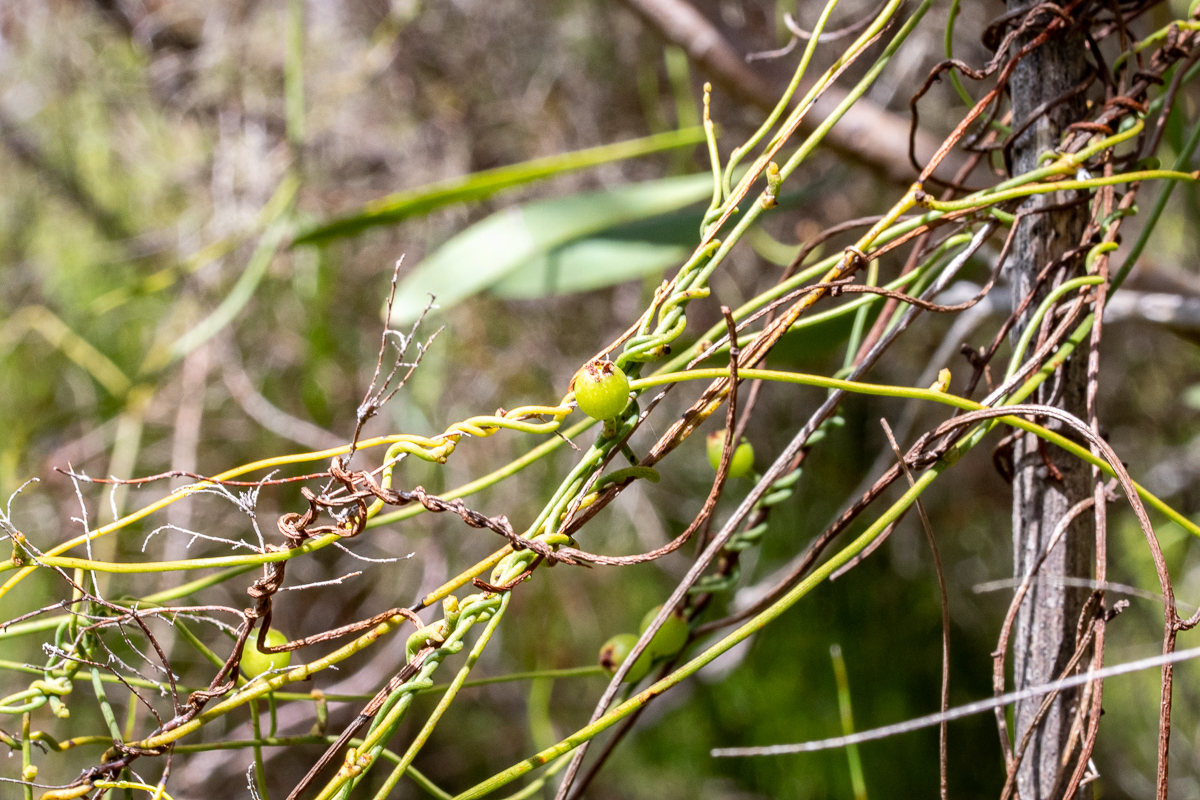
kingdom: Plantae
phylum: Tracheophyta
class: Magnoliopsida
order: Laurales
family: Lauraceae
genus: Cassytha
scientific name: Cassytha ciliolata
